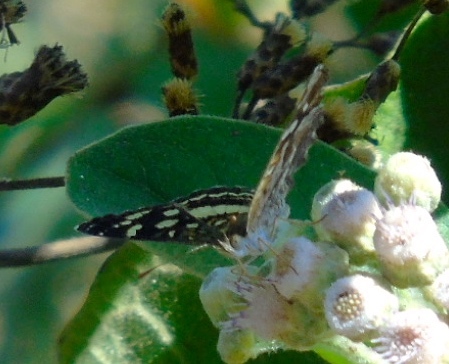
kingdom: Animalia
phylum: Arthropoda
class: Insecta
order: Lepidoptera
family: Nymphalidae
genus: Anthanassa
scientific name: Anthanassa
